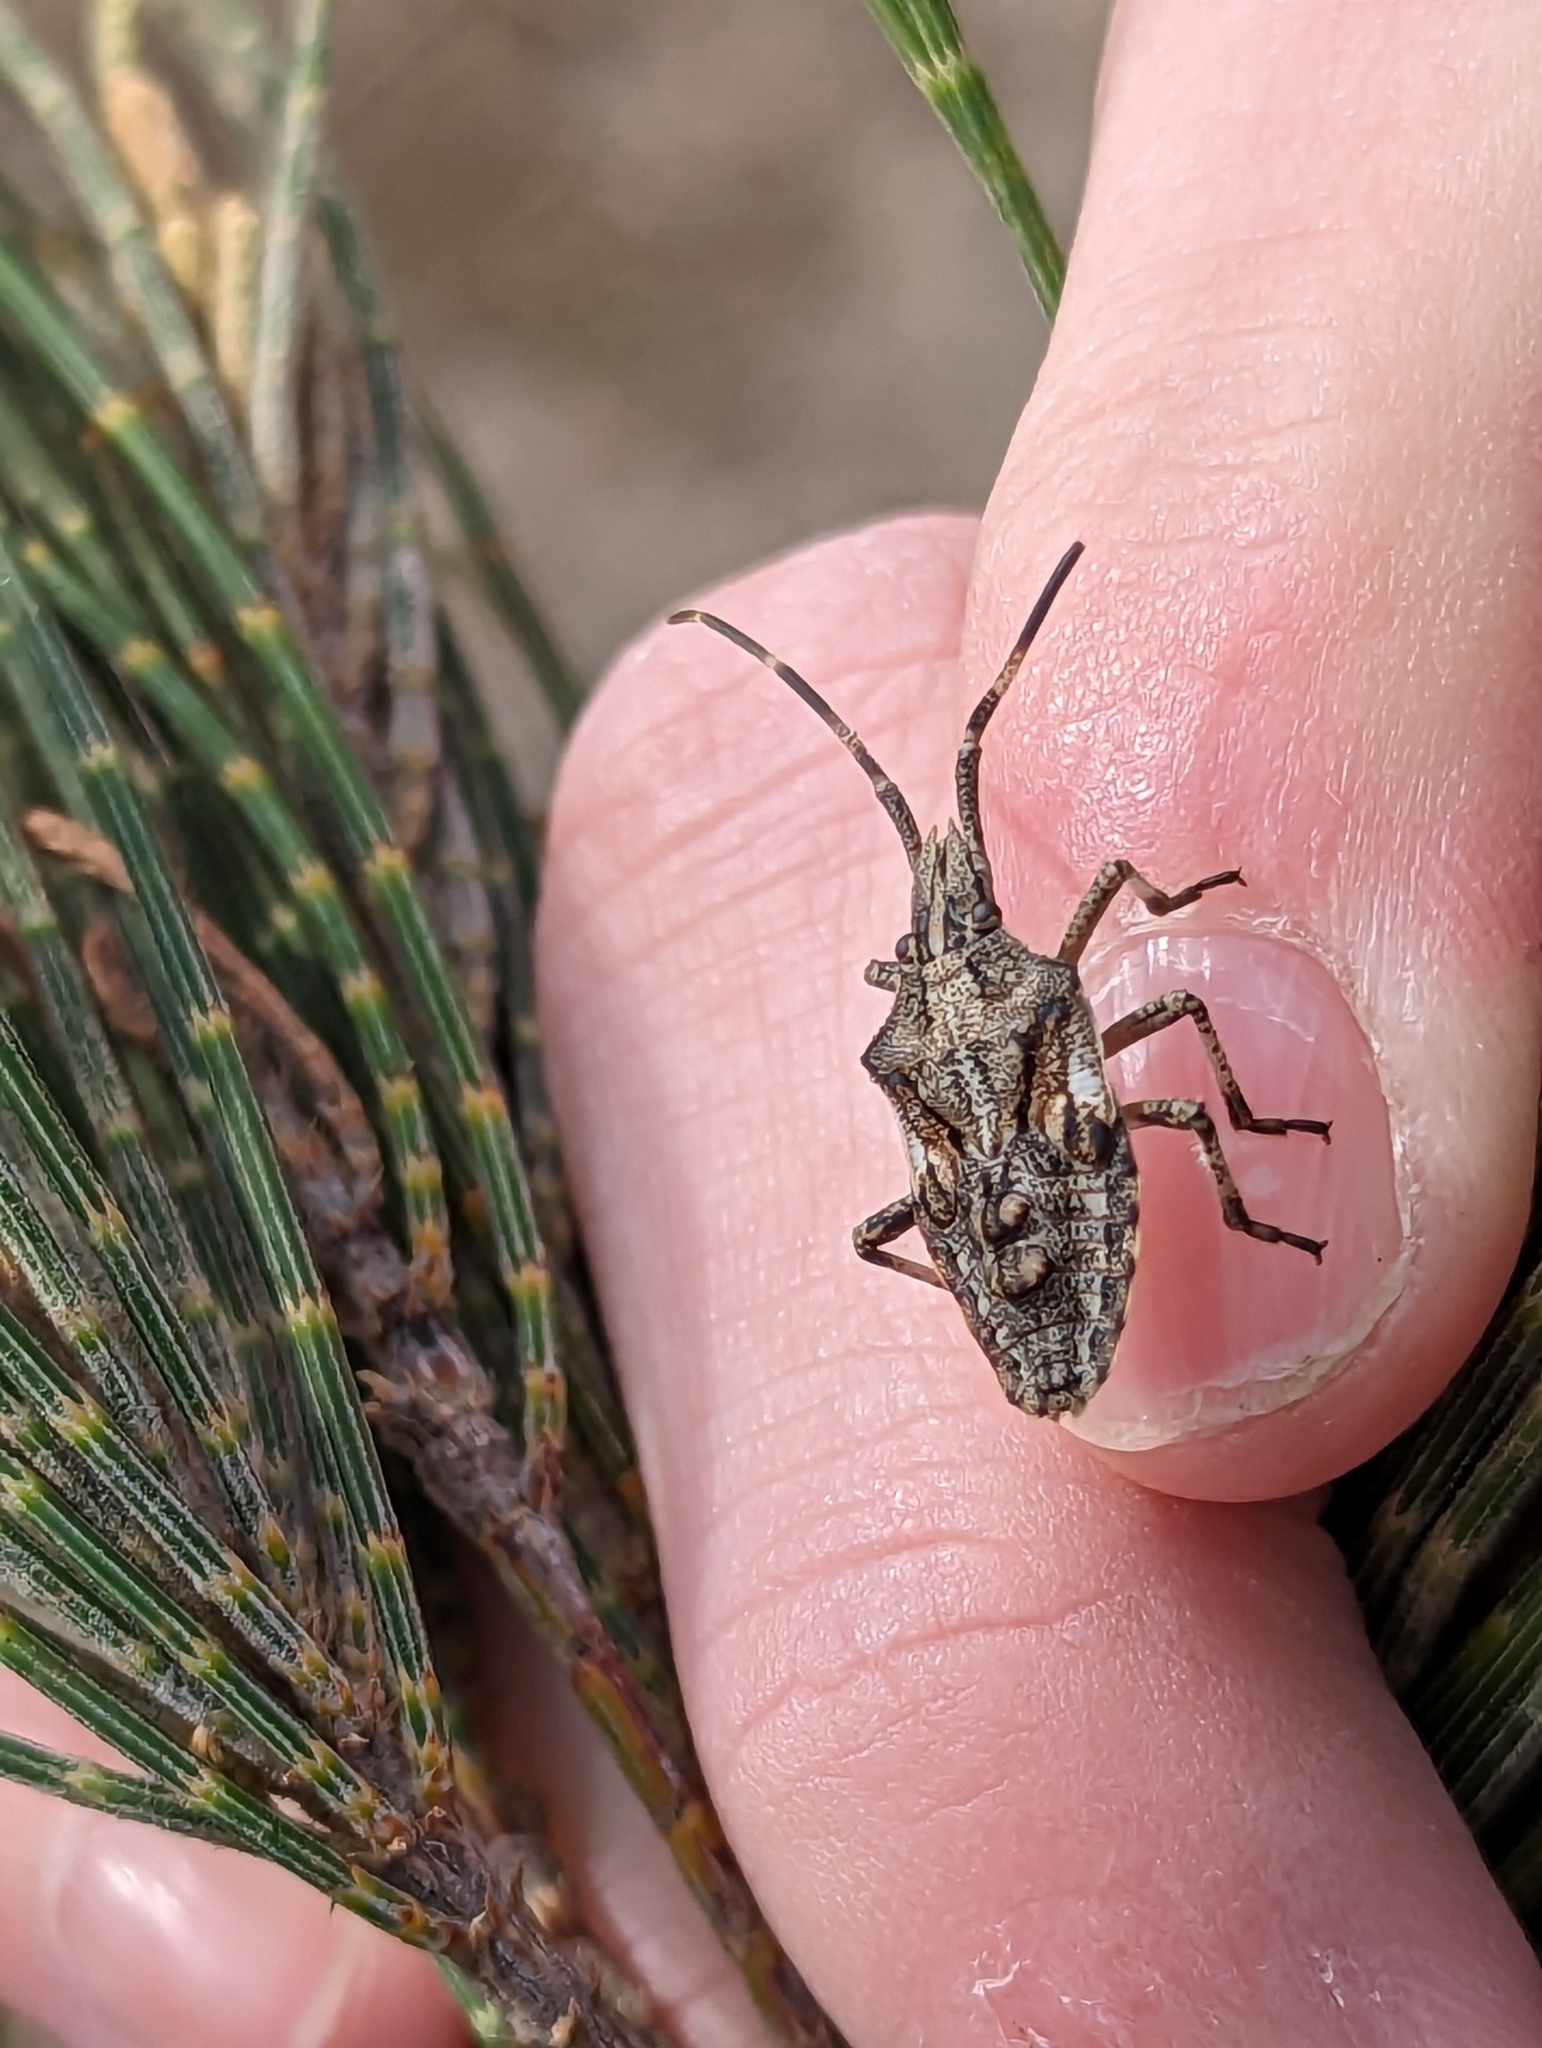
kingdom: Animalia
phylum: Arthropoda
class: Insecta
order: Hemiptera
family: Pentatomidae
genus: Alcaeus
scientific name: Alcaeus
